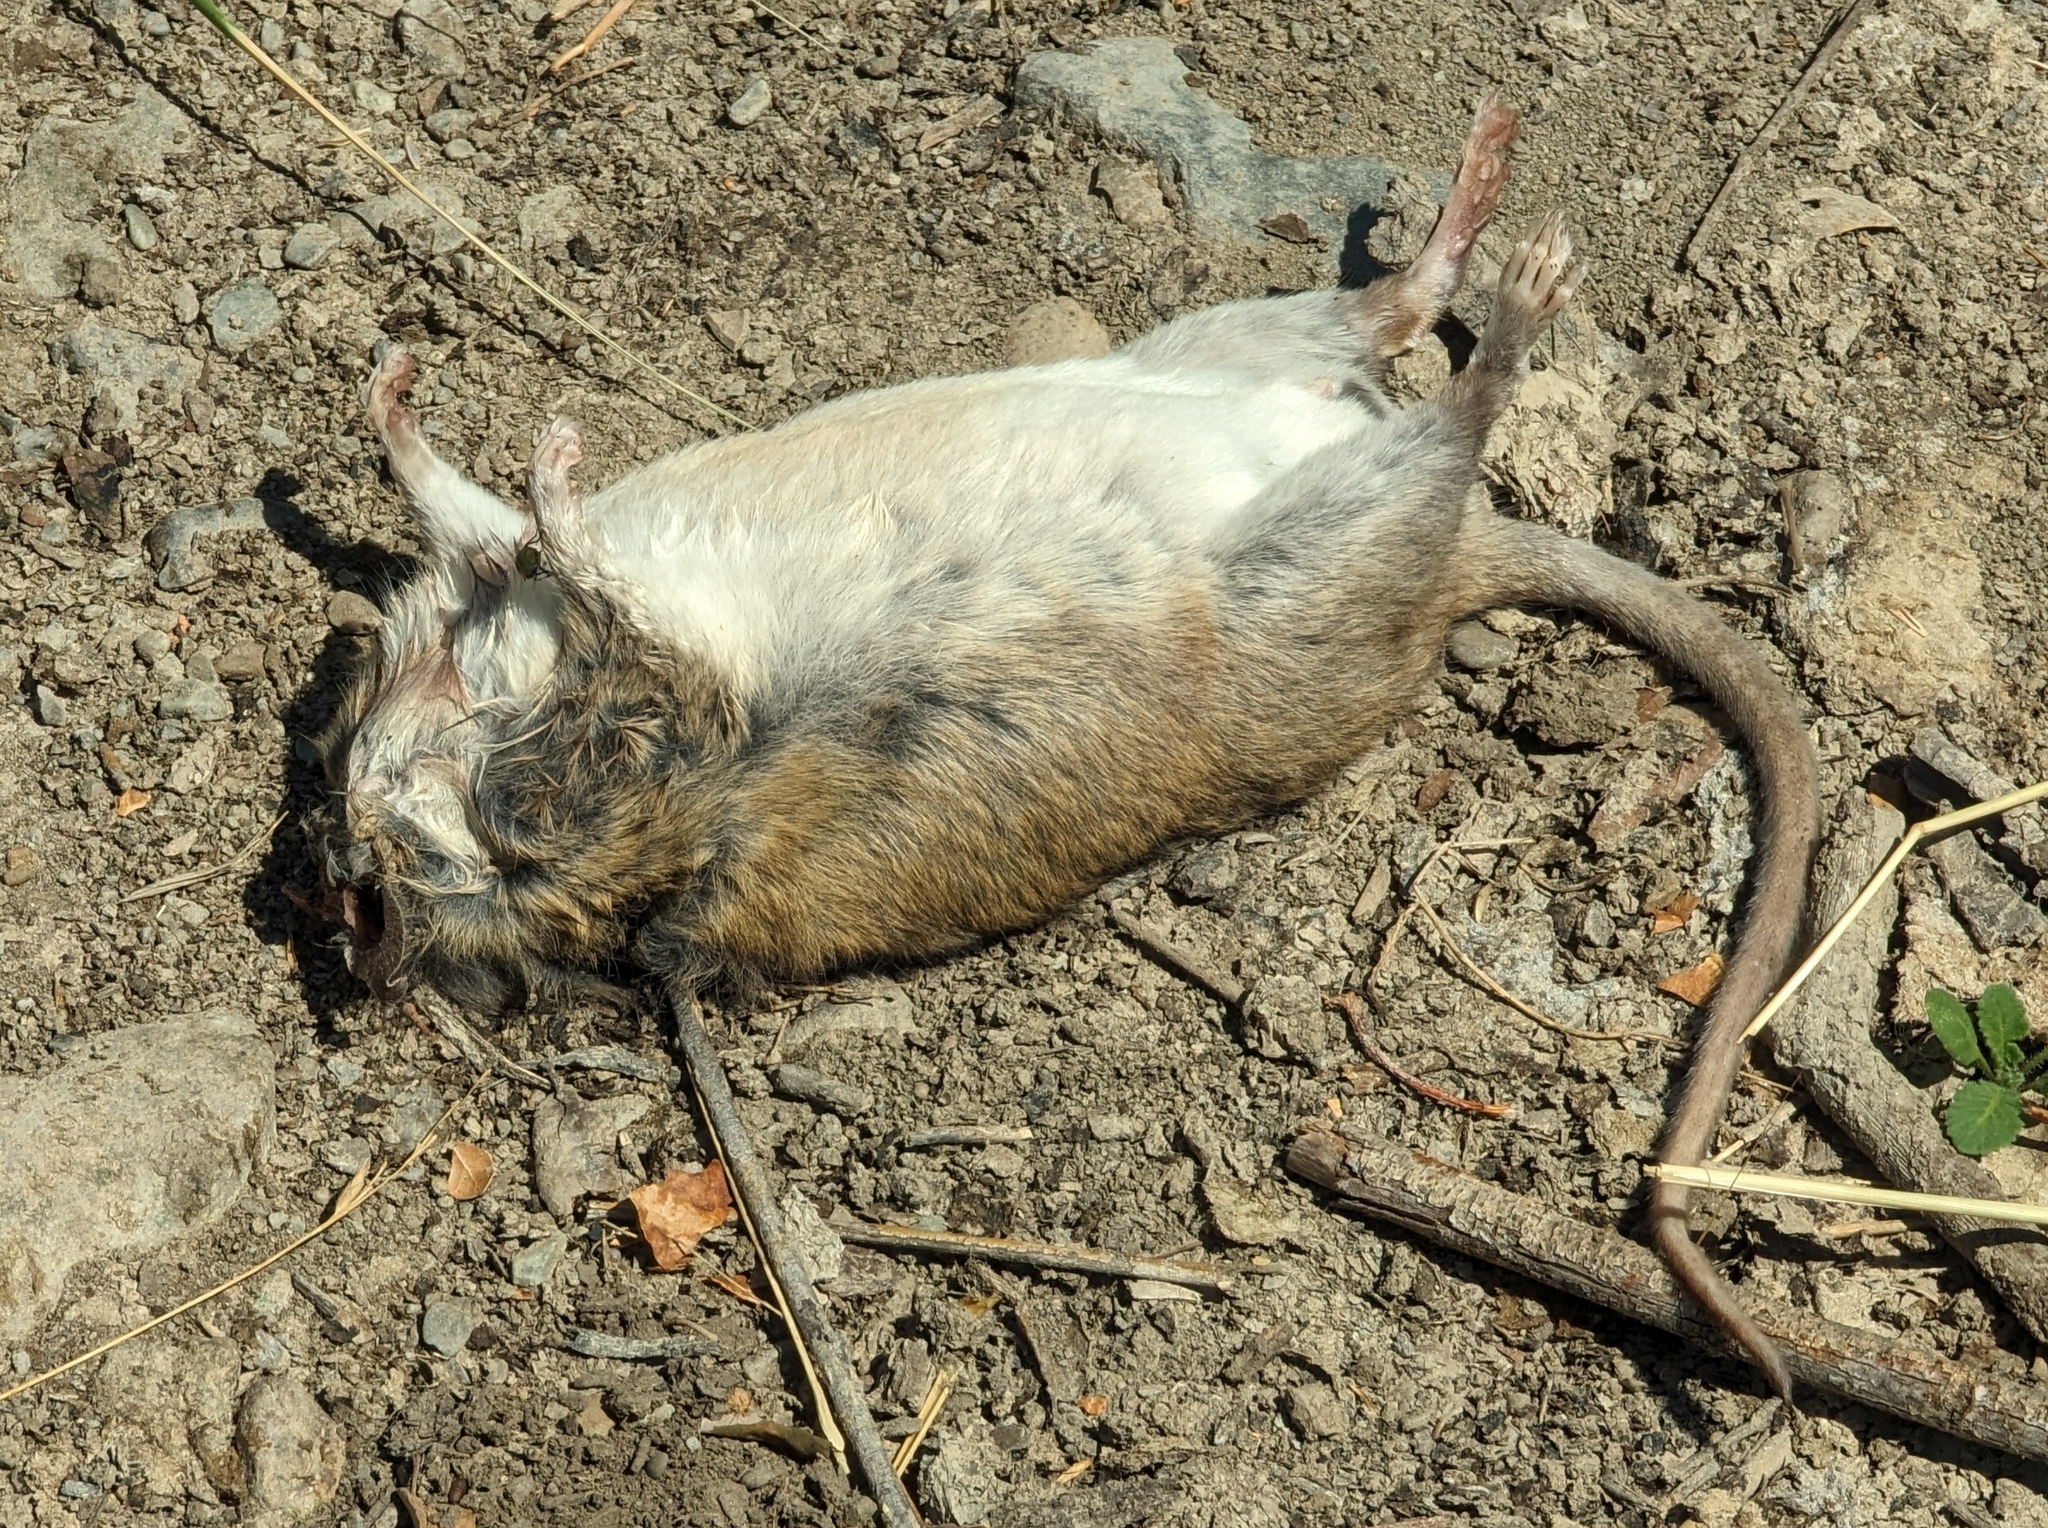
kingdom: Animalia
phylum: Chordata
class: Mammalia
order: Rodentia
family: Cricetidae
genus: Neotoma
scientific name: Neotoma fuscipes
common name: Dusky-footed woodrat
